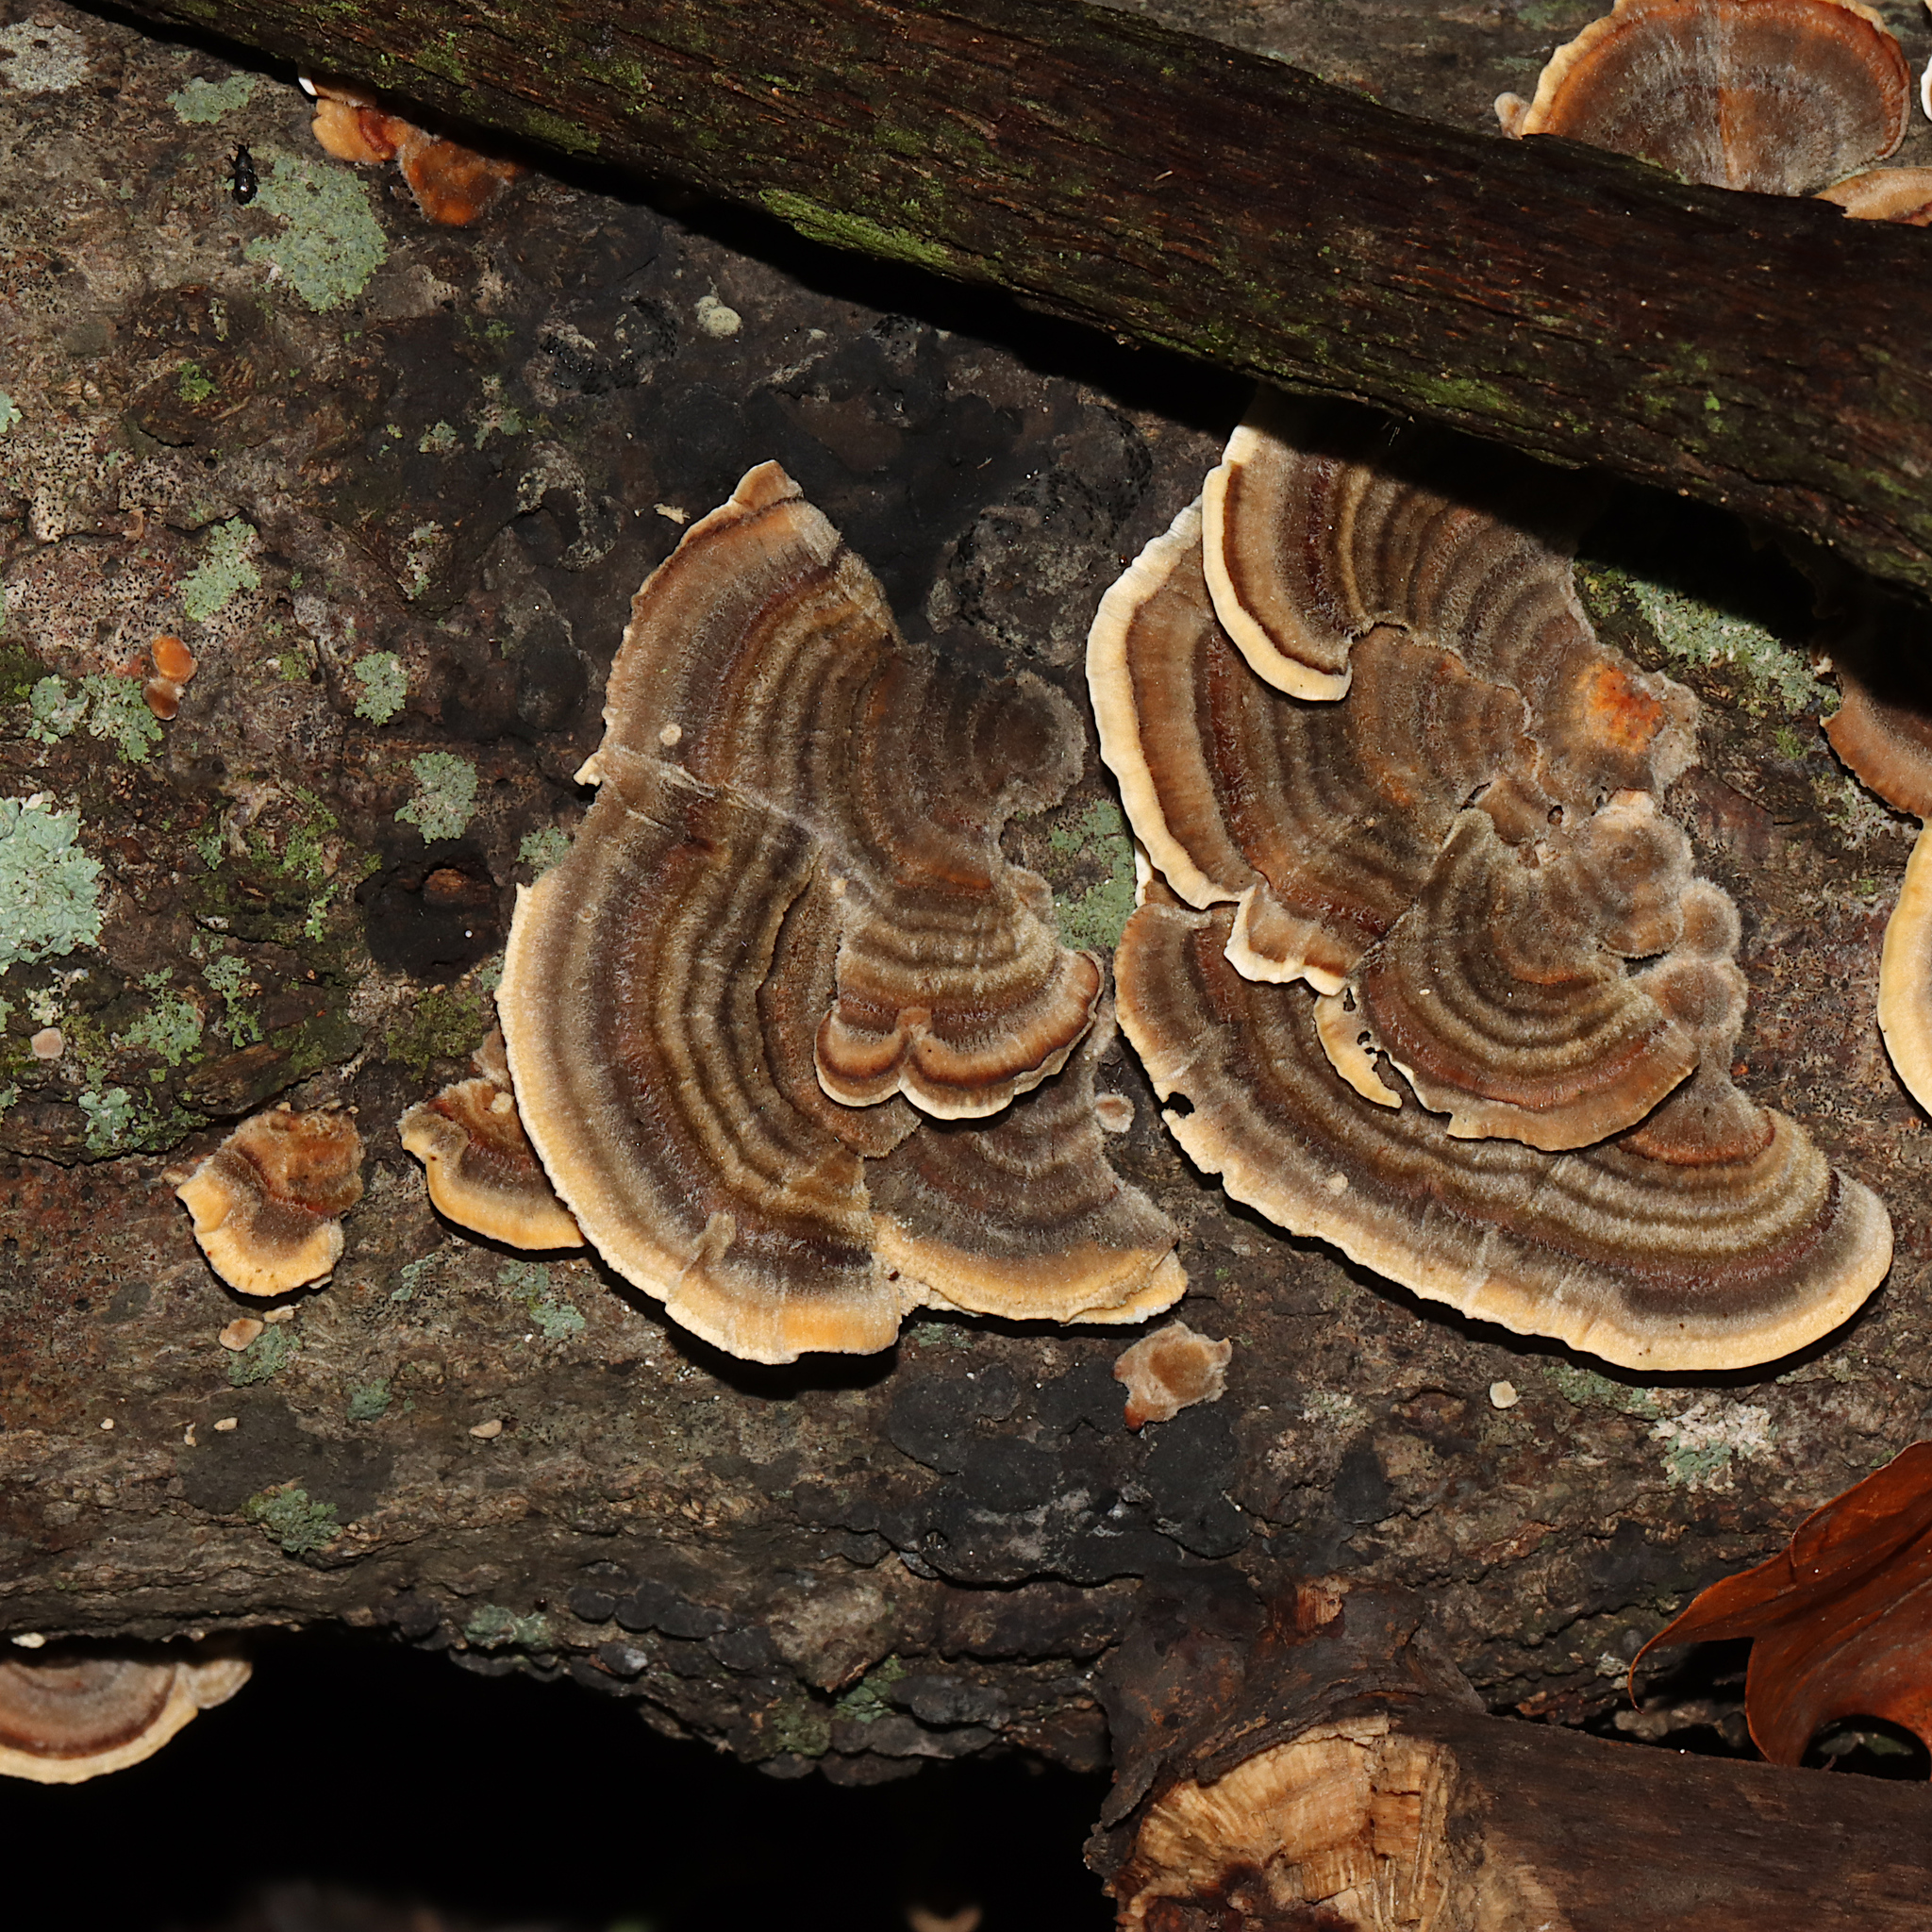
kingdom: Fungi
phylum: Basidiomycota
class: Agaricomycetes
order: Polyporales
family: Polyporaceae
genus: Trametes
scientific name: Trametes versicolor
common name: Turkeytail
